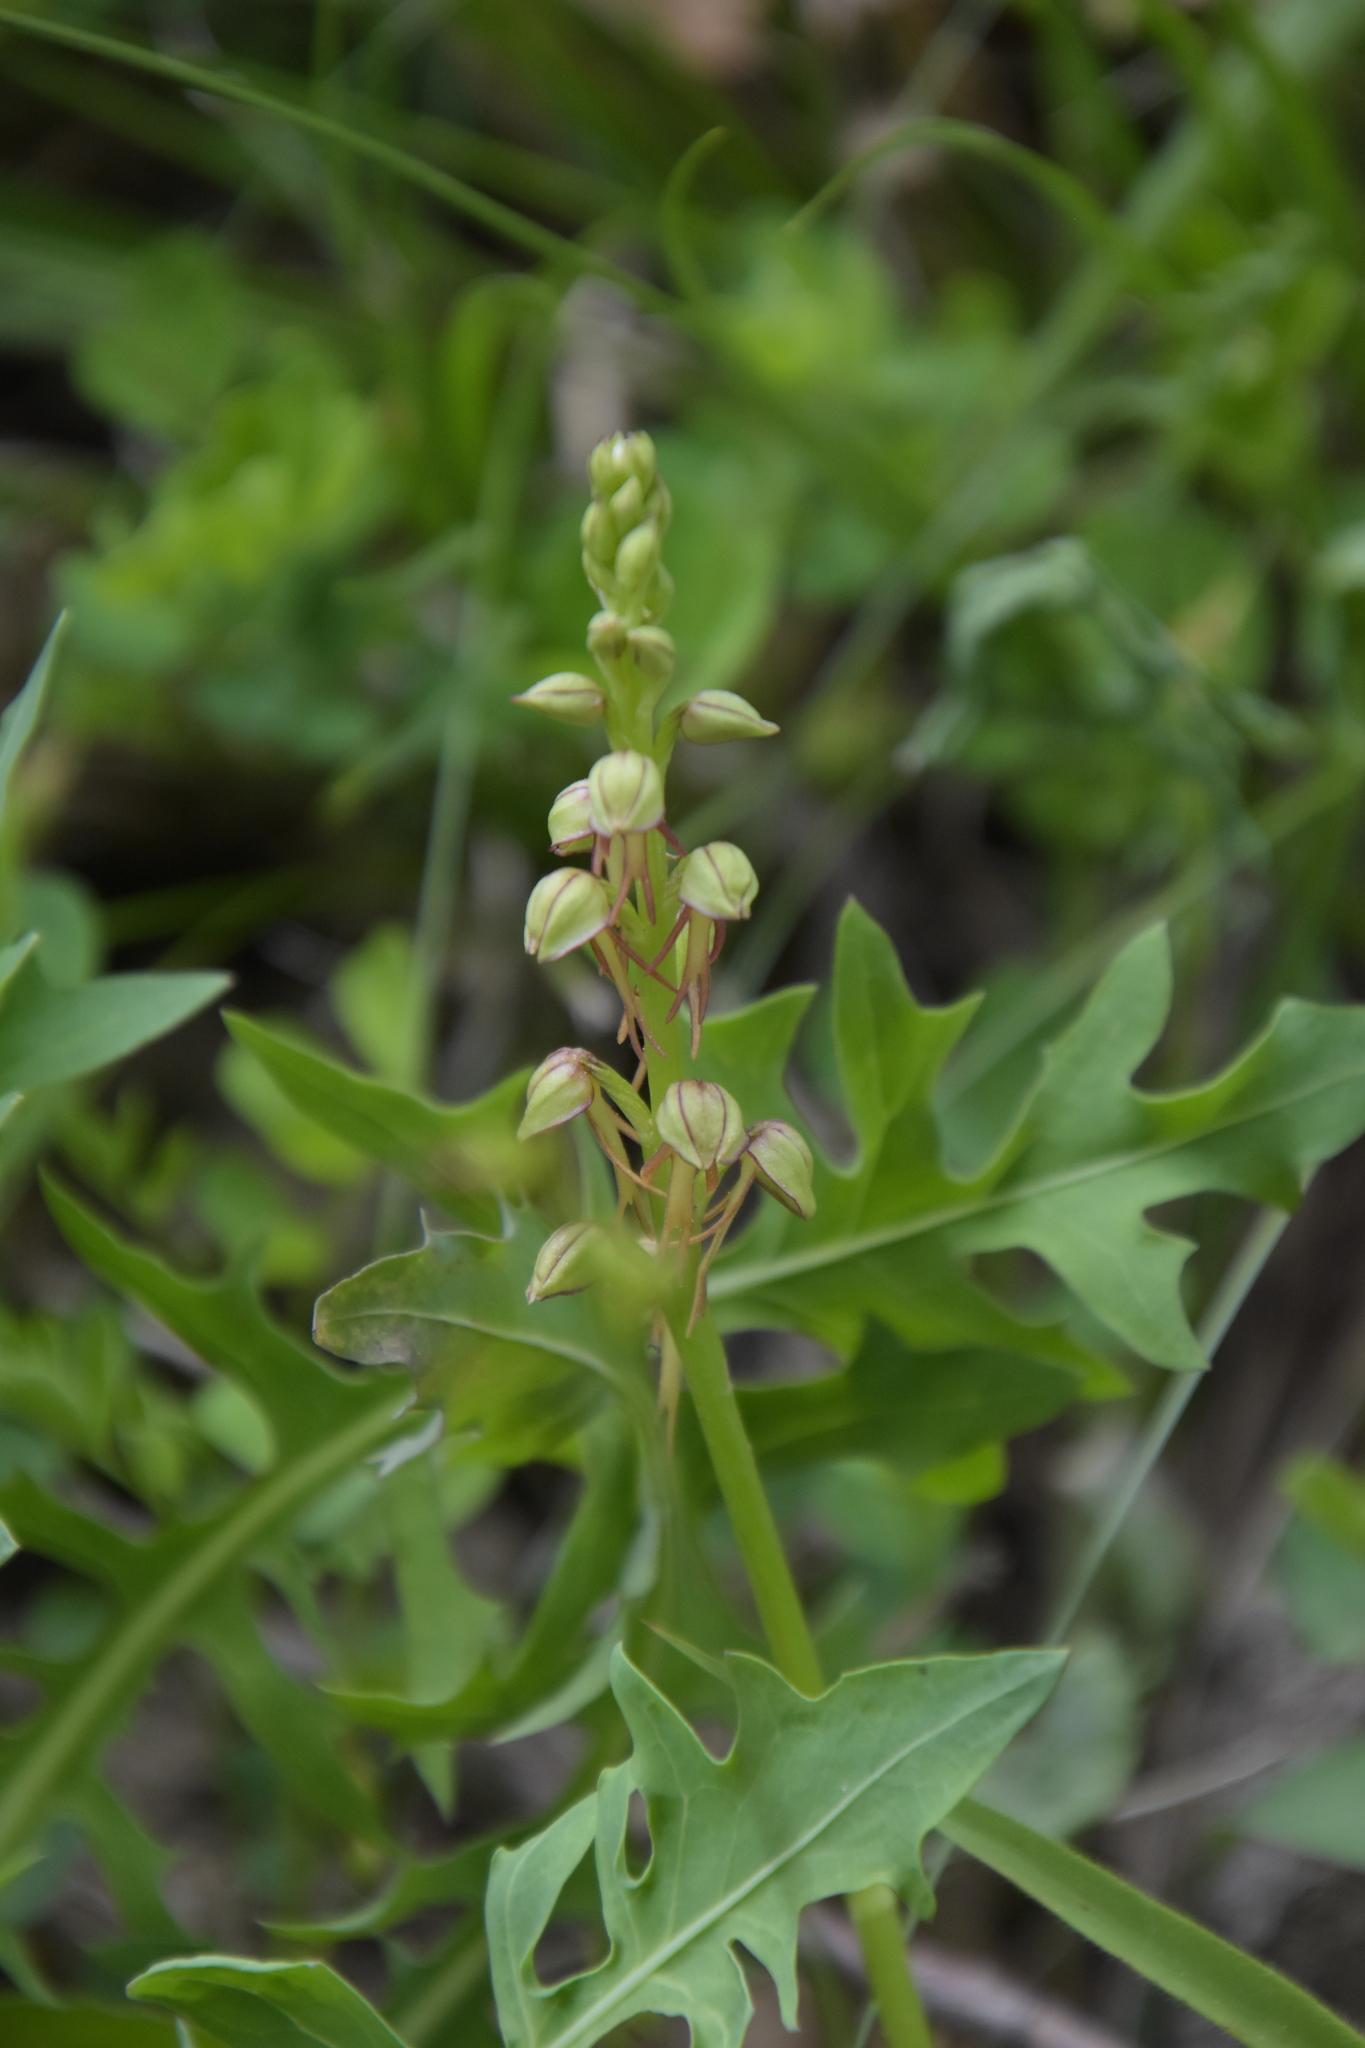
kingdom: Plantae
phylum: Tracheophyta
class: Liliopsida
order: Asparagales
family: Orchidaceae
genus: Orchis
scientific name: Orchis anthropophora
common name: Man orchid
